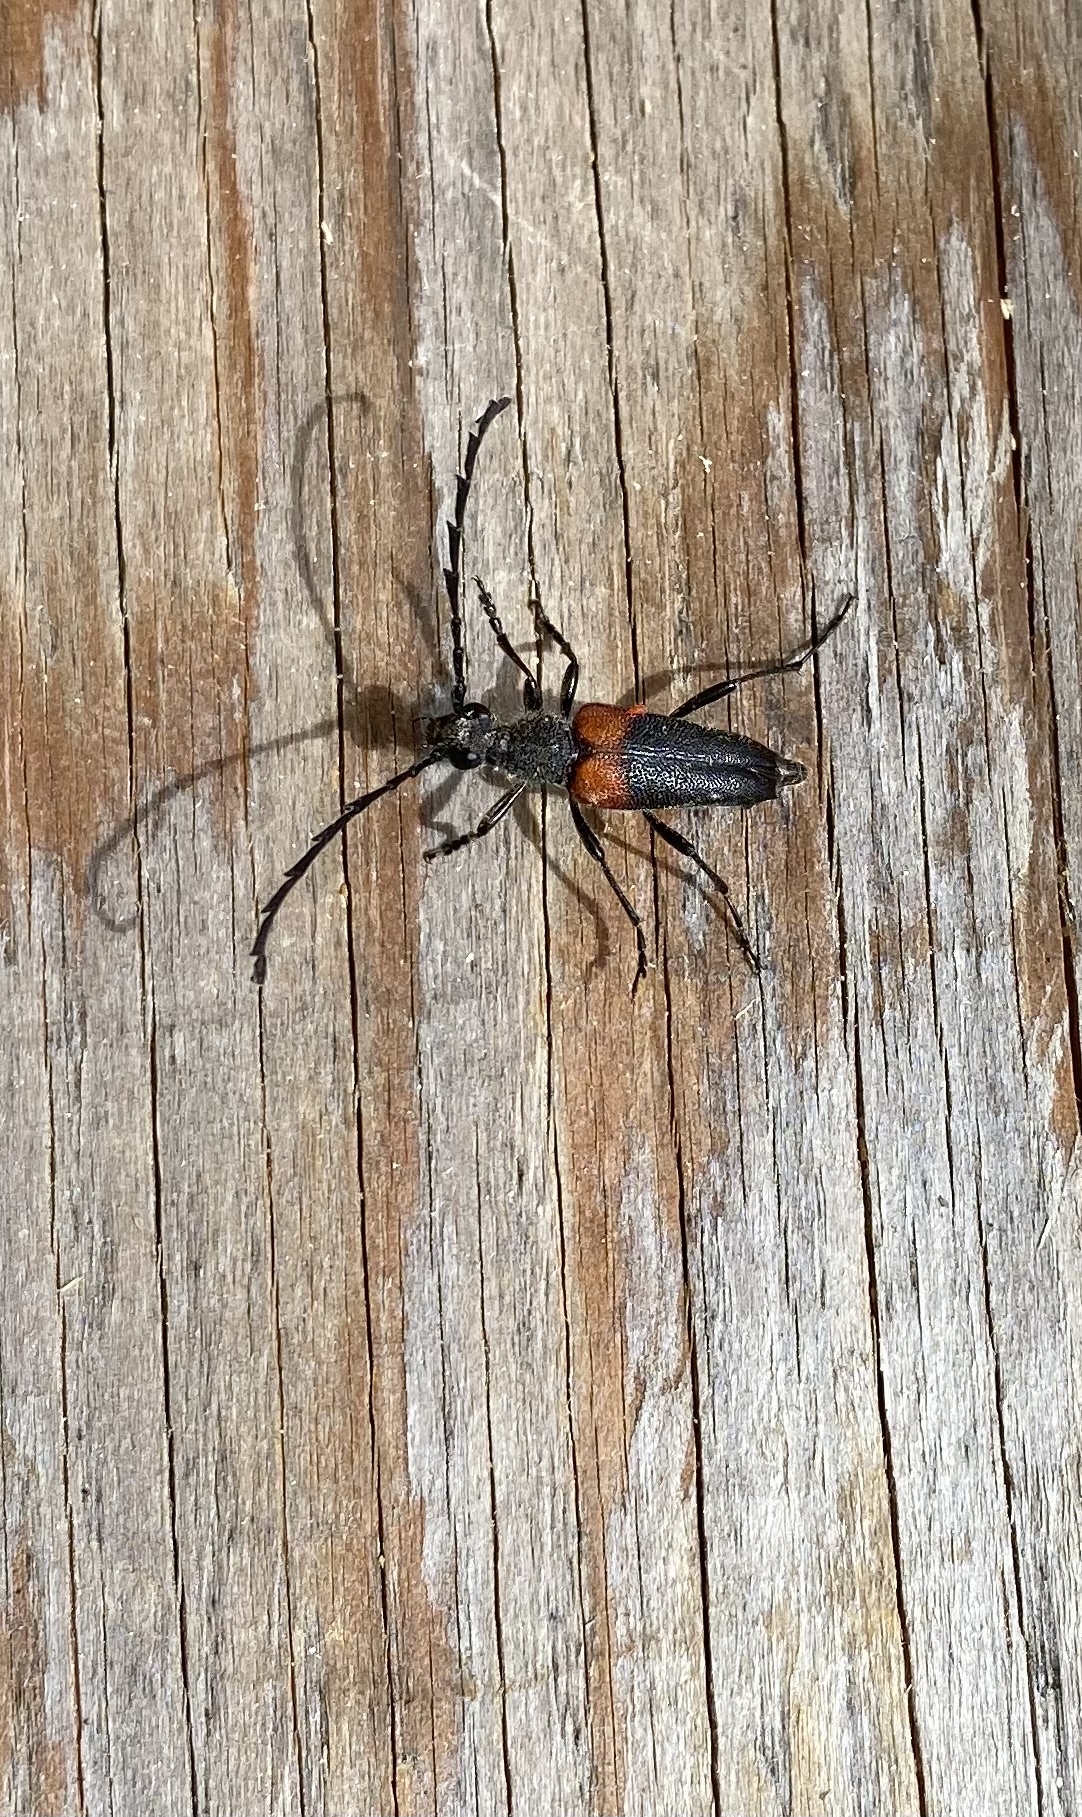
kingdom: Animalia
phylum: Arthropoda
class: Insecta
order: Coleoptera
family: Cerambycidae
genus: Stictoleptura
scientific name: Stictoleptura canadensis
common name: Red-shouldered pine borer
